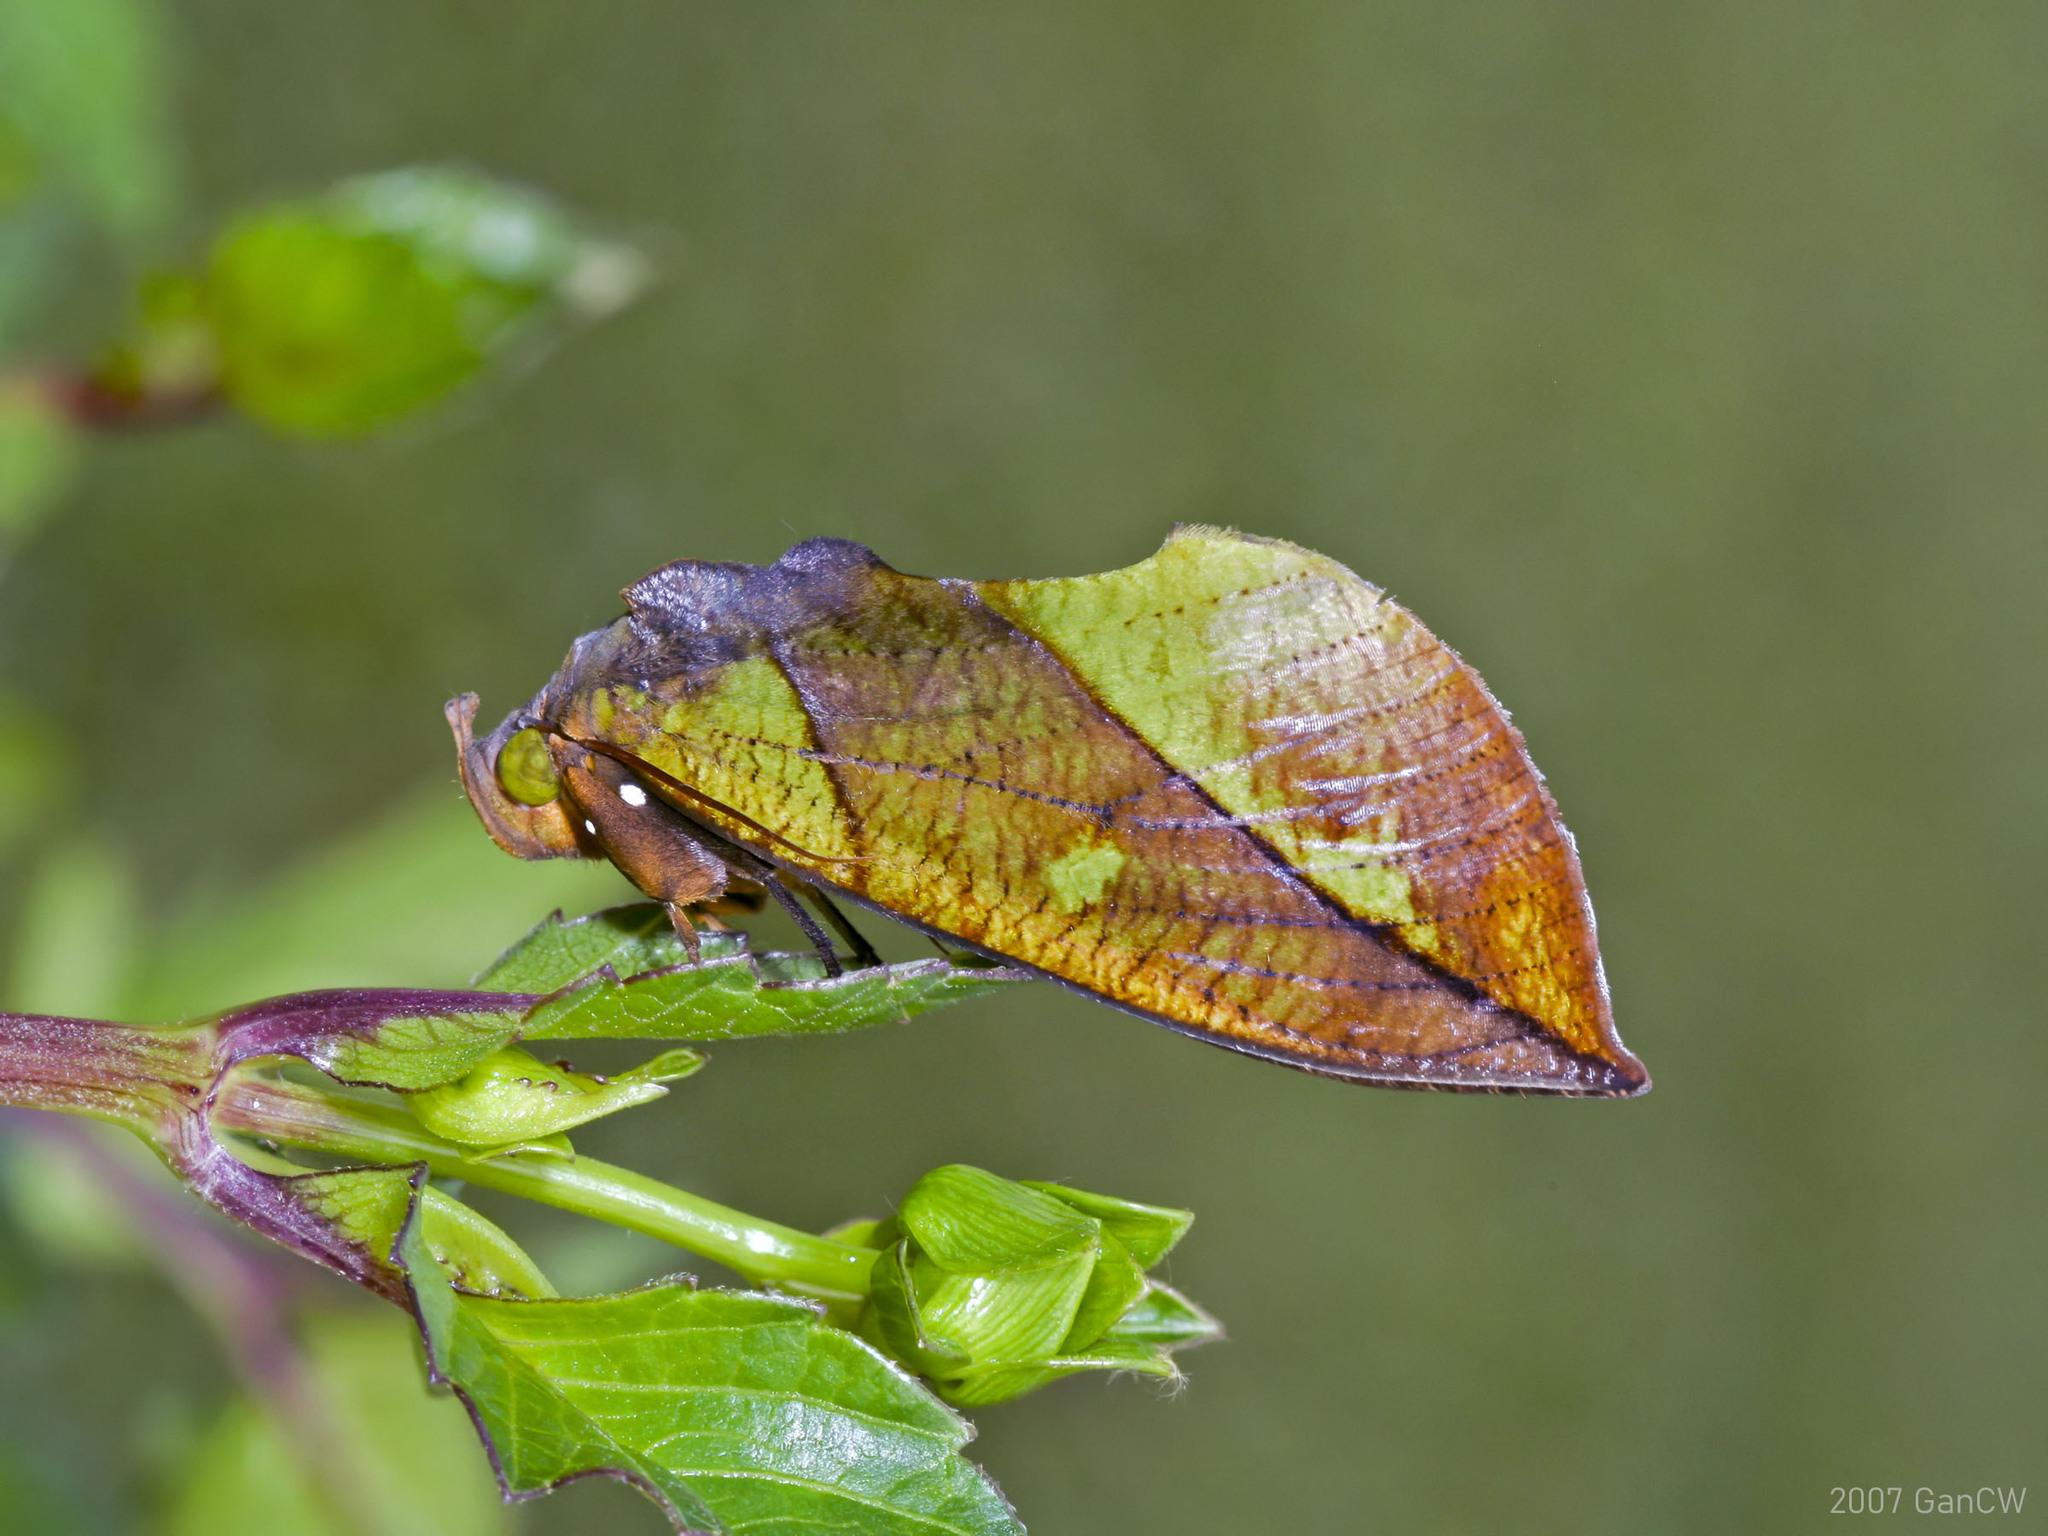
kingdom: Animalia
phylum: Arthropoda
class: Insecta
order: Lepidoptera
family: Erebidae
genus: Eudocima
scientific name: Eudocima sikhimensis
